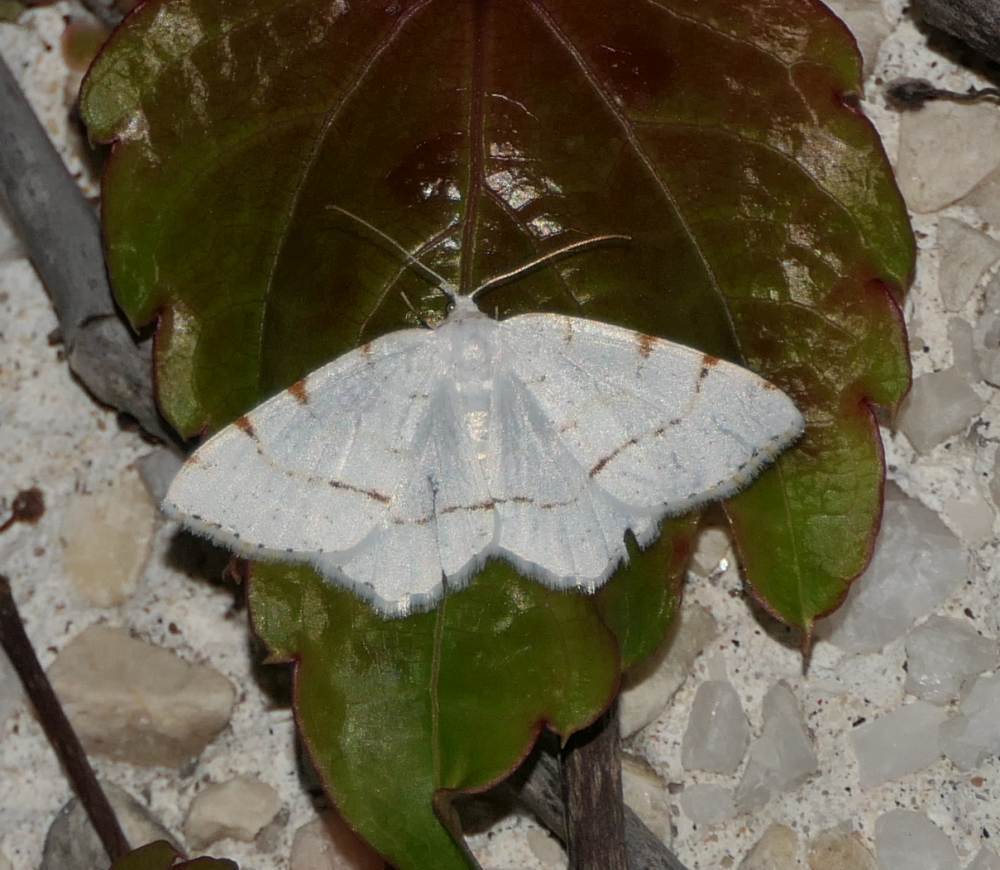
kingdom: Animalia
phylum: Arthropoda
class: Insecta
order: Lepidoptera
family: Geometridae
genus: Macaria
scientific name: Macaria pustularia
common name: Lesser maple spanworm moth
